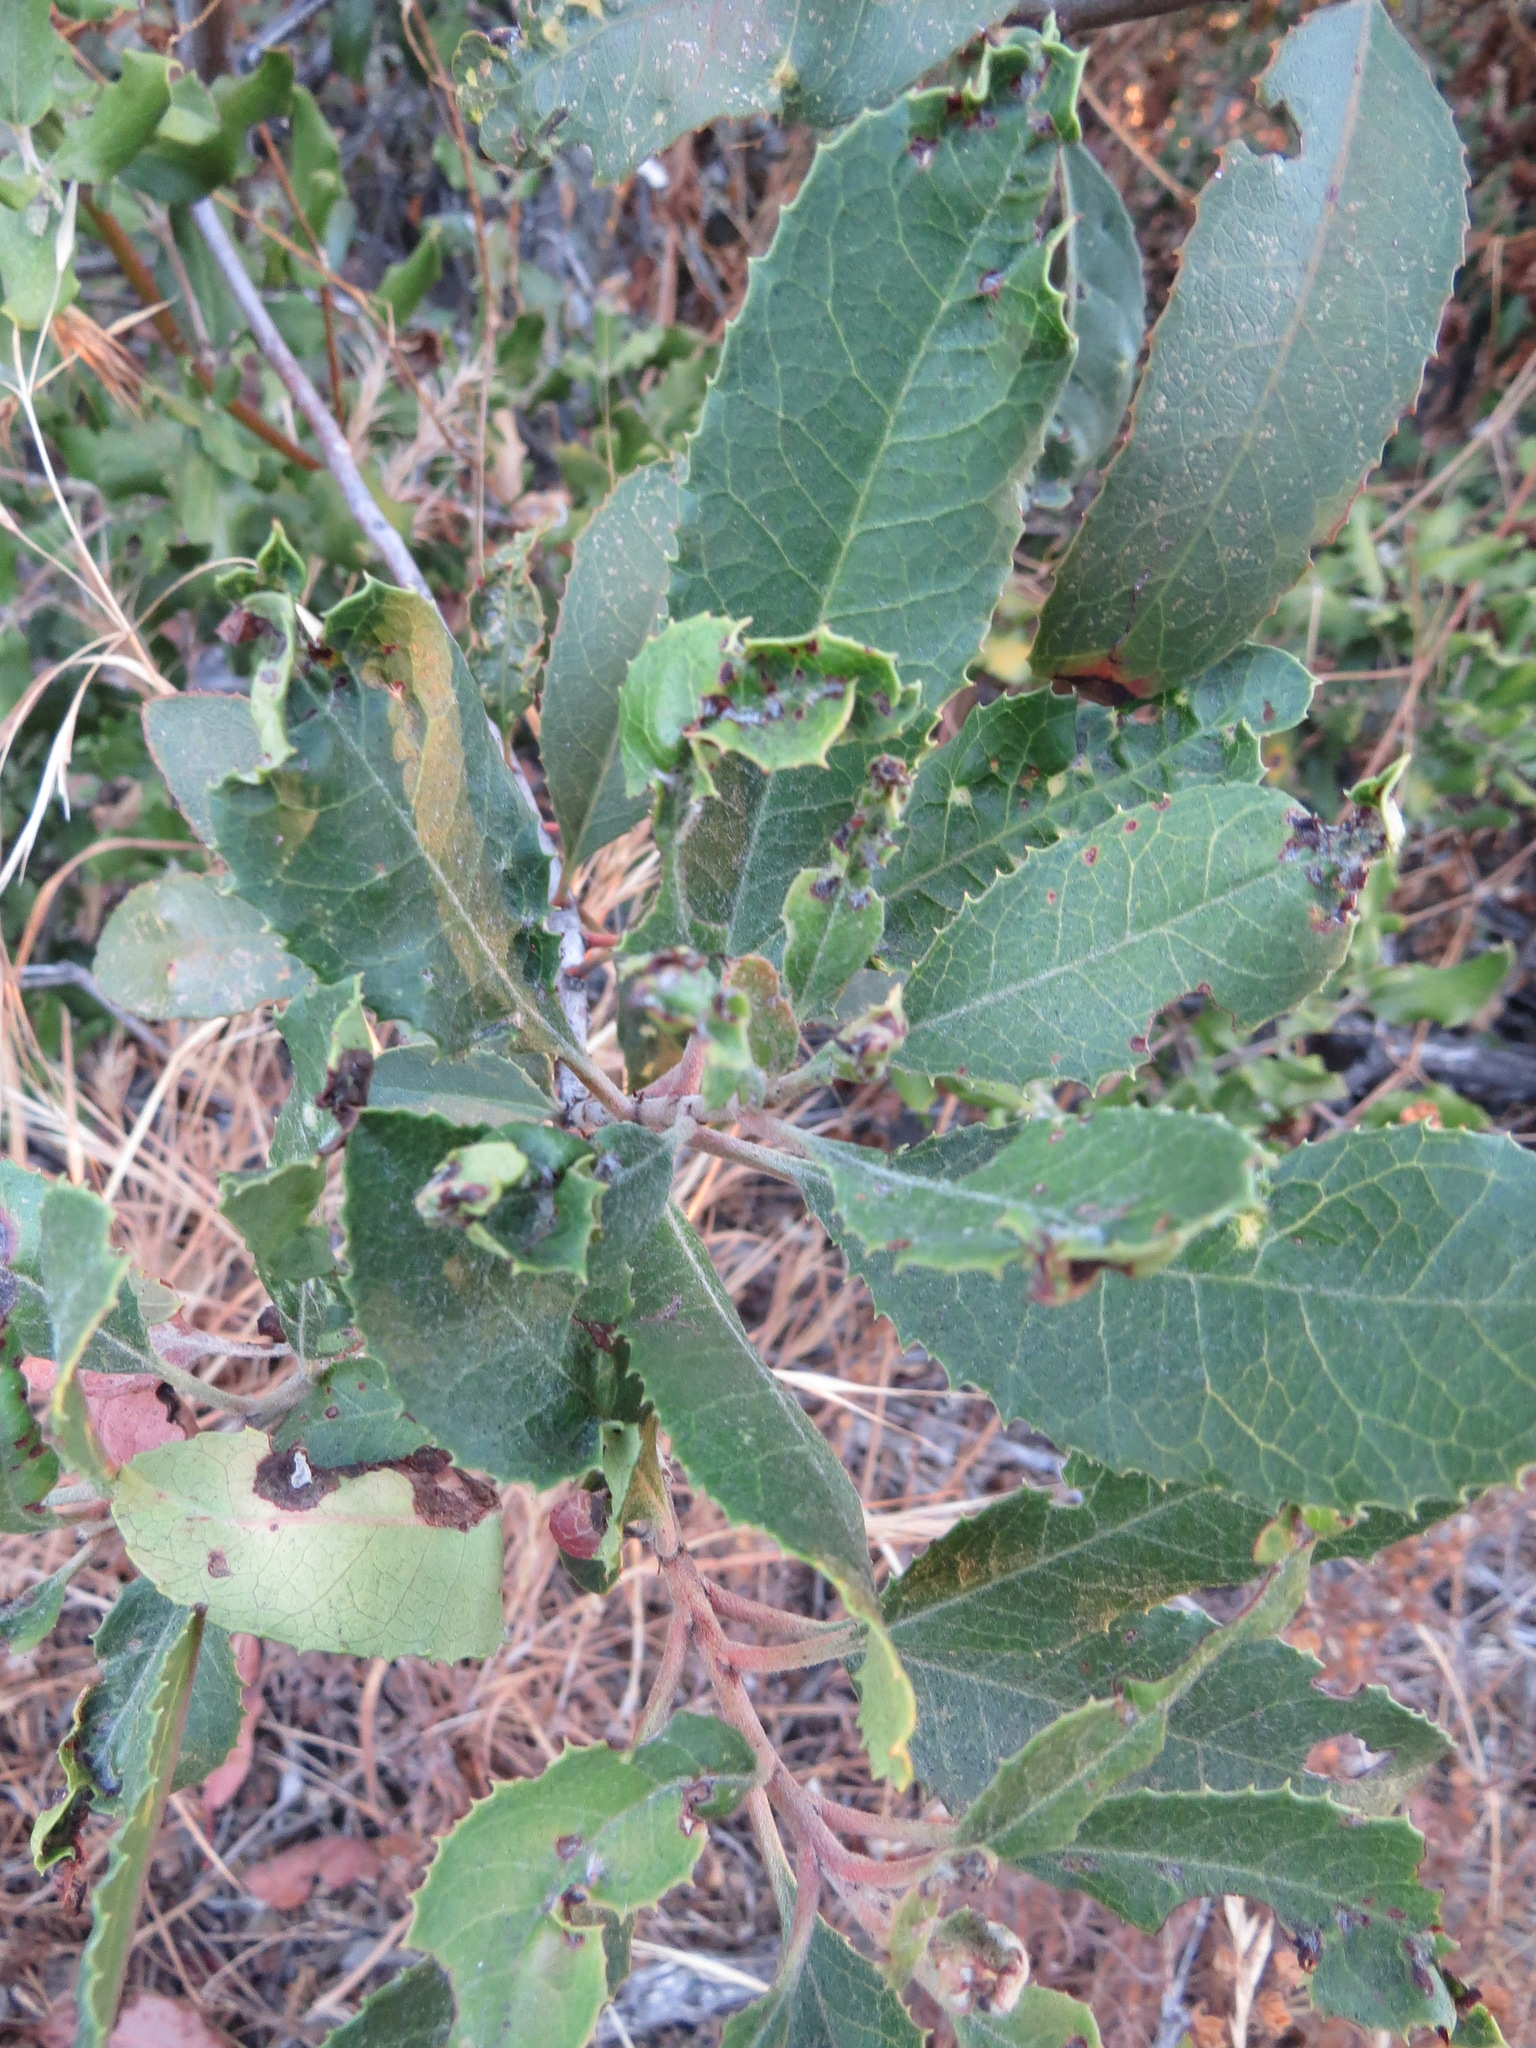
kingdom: Animalia
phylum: Arthropoda
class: Insecta
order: Thysanoptera
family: Phlaeothripidae
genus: Liothrips
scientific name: Liothrips ilex
